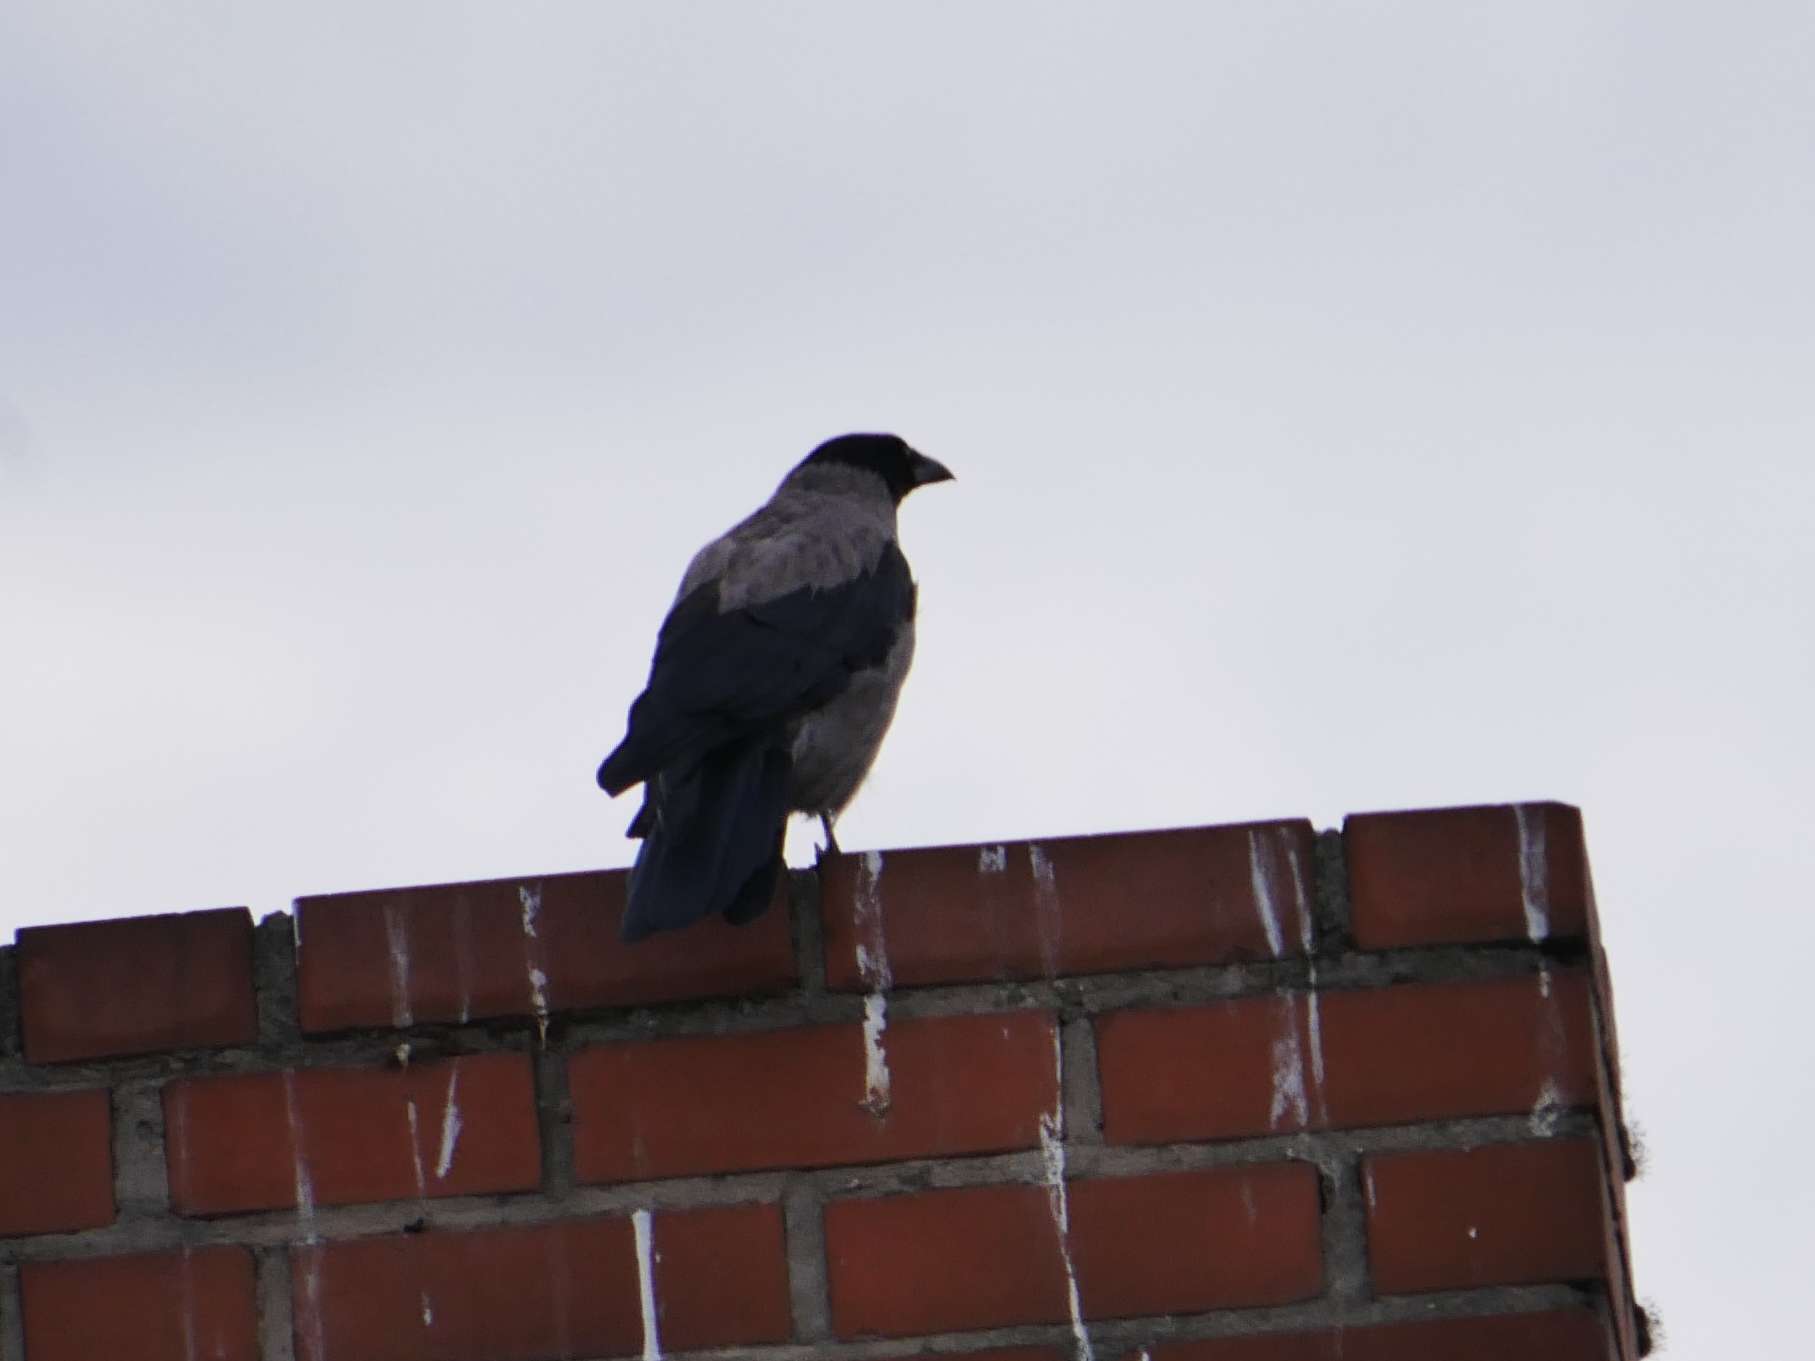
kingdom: Animalia
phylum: Chordata
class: Aves
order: Passeriformes
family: Corvidae
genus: Corvus
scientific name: Corvus cornix
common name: Hooded crow
